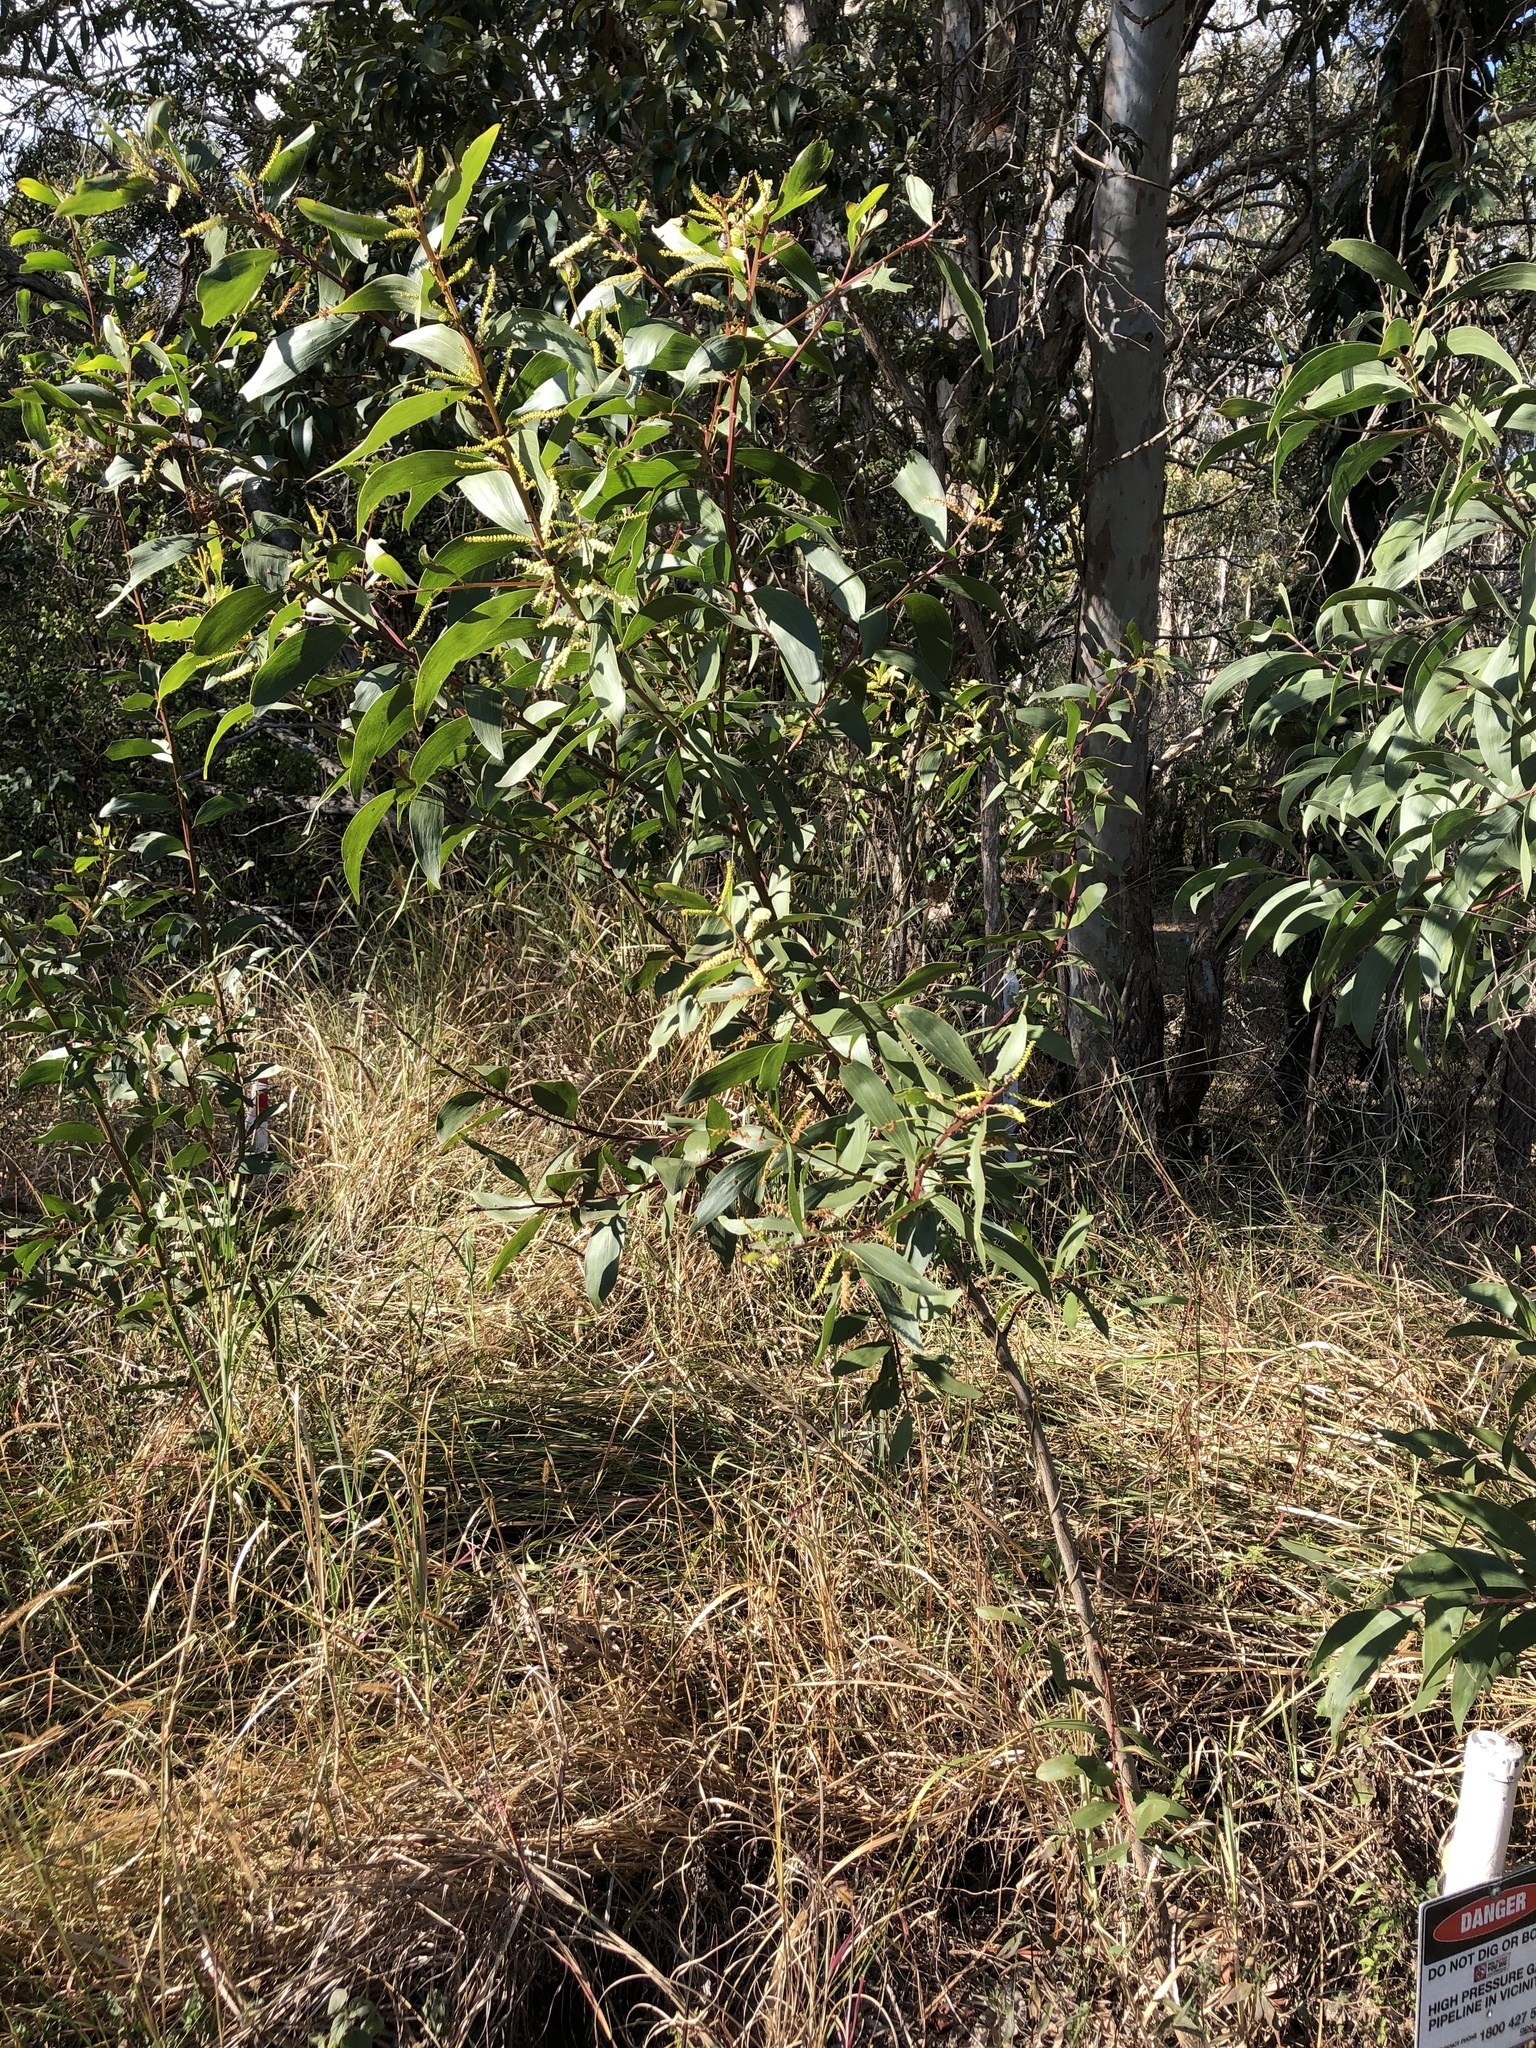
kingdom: Plantae
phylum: Tracheophyta
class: Magnoliopsida
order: Fabales
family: Fabaceae
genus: Acacia
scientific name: Acacia leiocalyx
